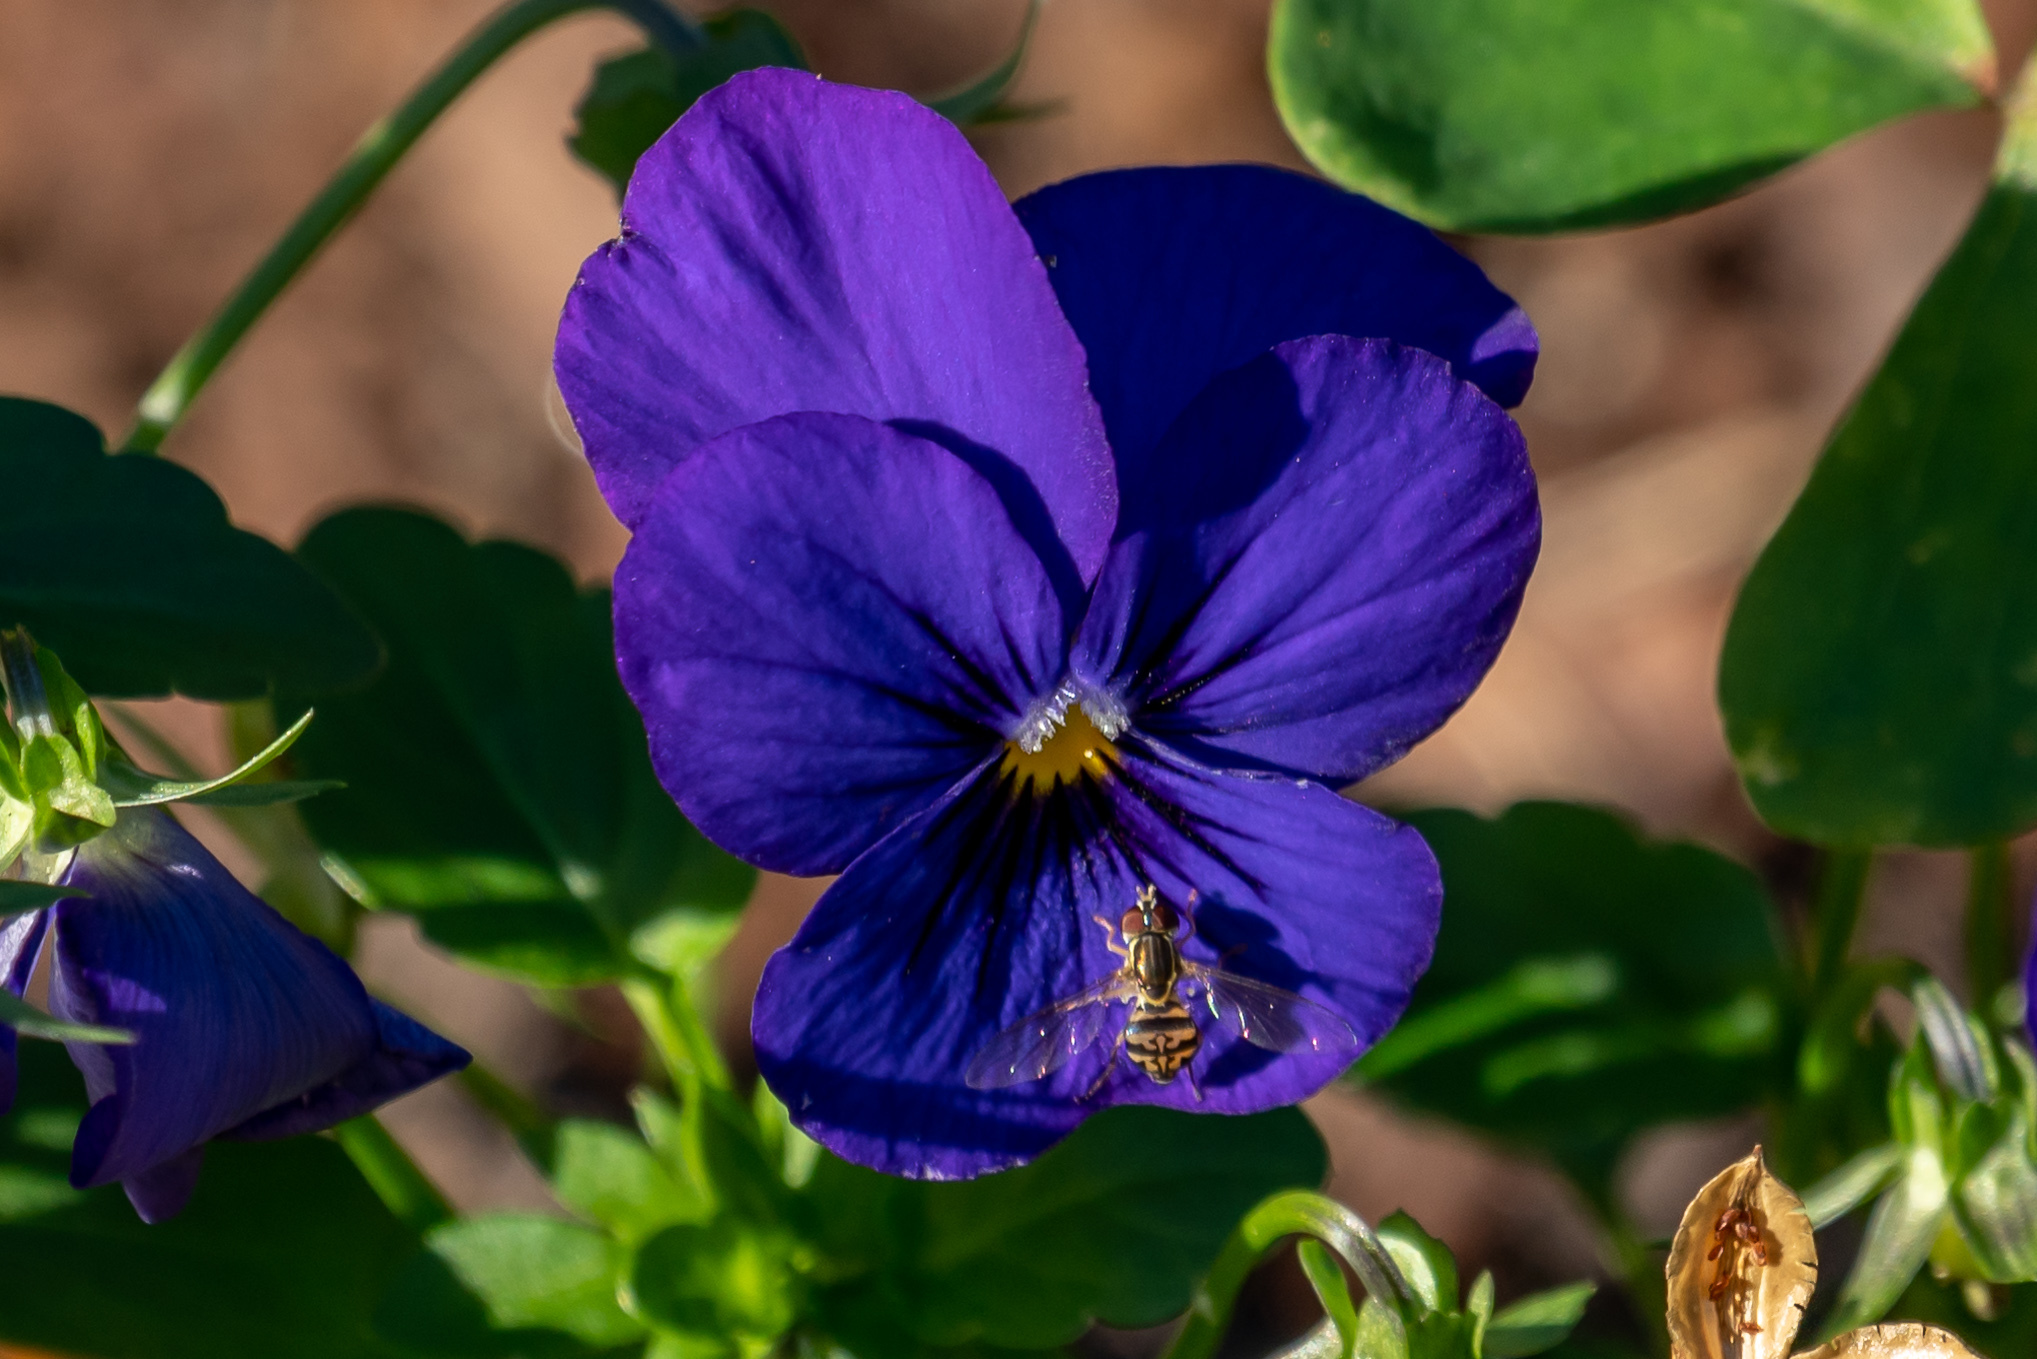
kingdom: Animalia
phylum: Arthropoda
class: Insecta
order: Diptera
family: Syrphidae
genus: Toxomerus
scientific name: Toxomerus geminatus
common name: Eastern calligrapher
